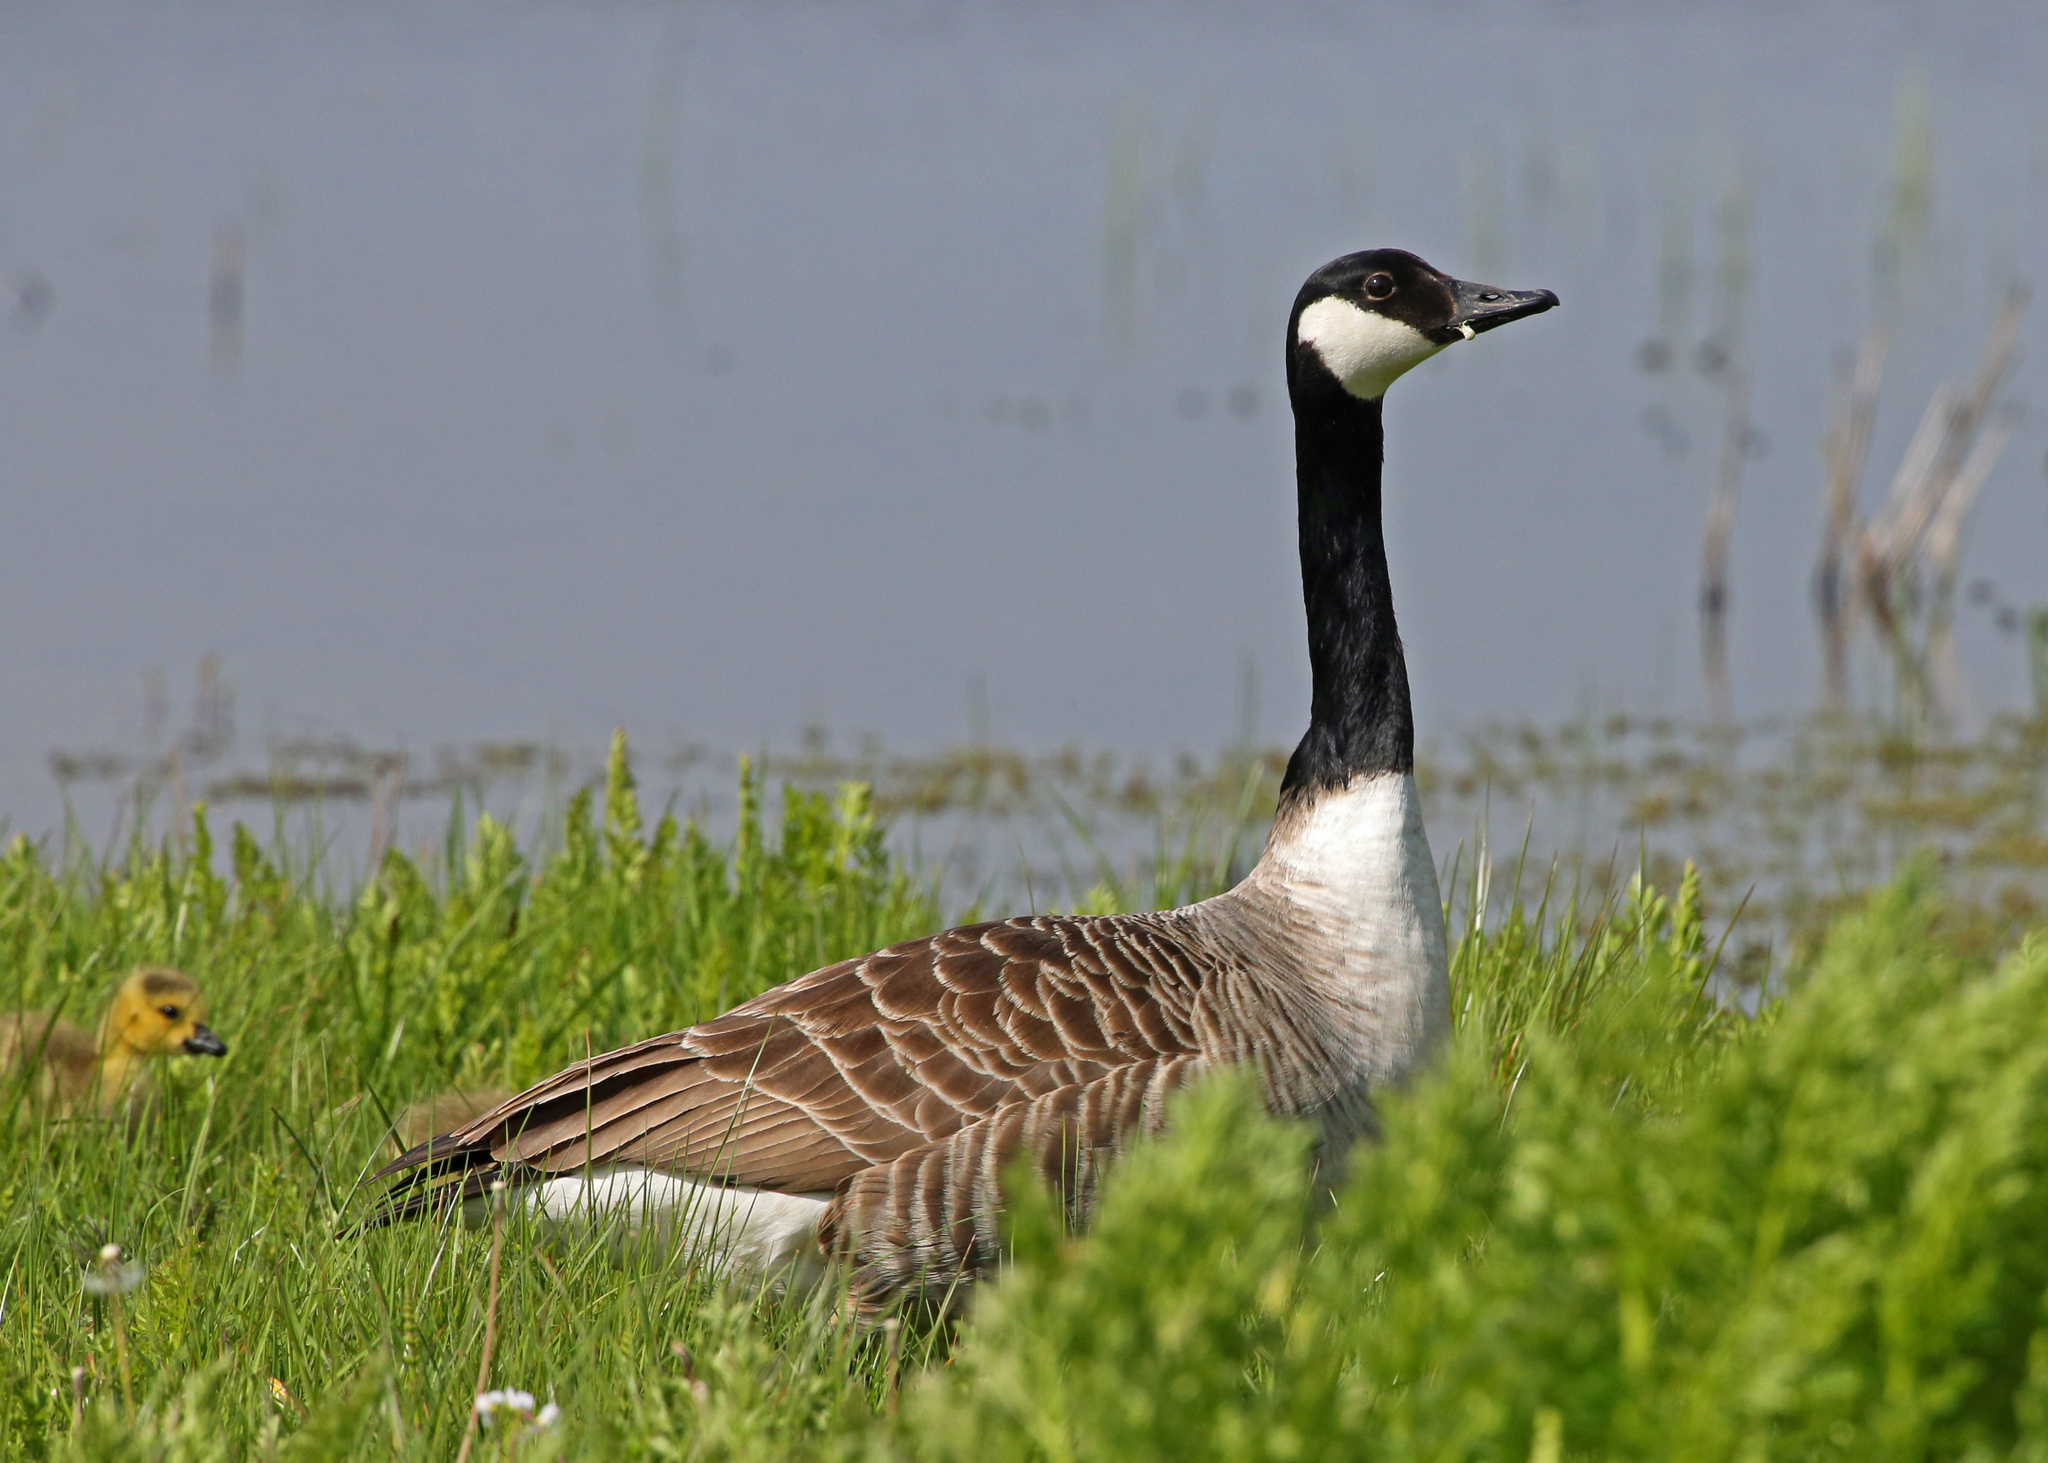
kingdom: Animalia
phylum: Chordata
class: Aves
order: Anseriformes
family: Anatidae
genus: Branta
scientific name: Branta canadensis
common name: Canada goose
